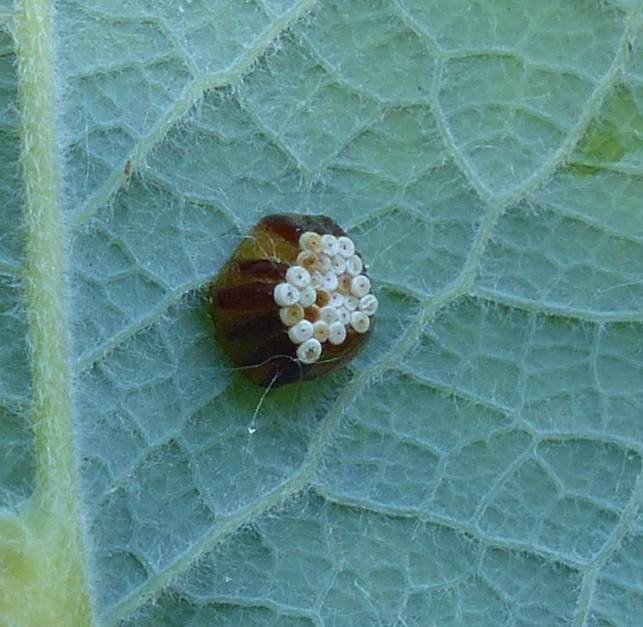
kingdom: Animalia
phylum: Arthropoda
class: Insecta
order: Hemiptera
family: Reduviidae
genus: Zelus
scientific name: Zelus luridus
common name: Pale green assassin bug
